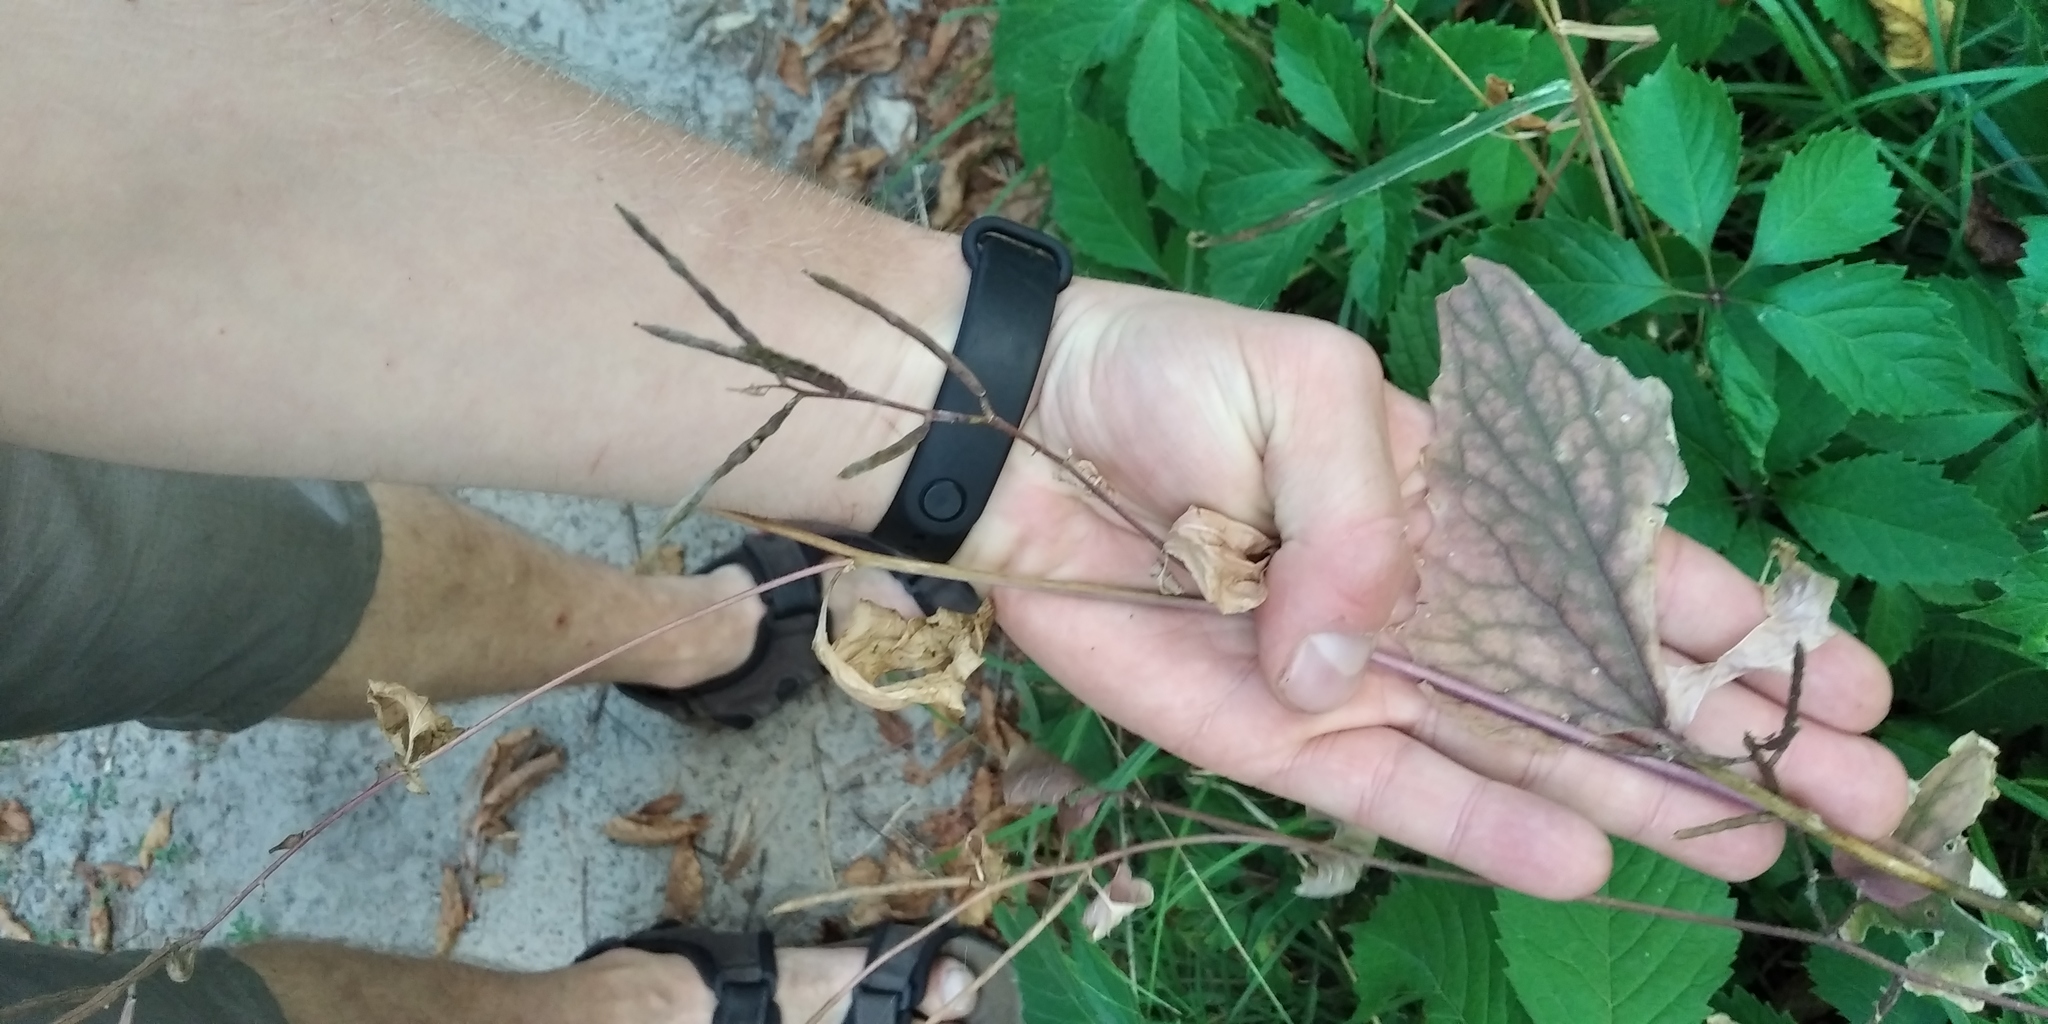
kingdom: Plantae
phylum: Tracheophyta
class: Magnoliopsida
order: Brassicales
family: Brassicaceae
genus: Alliaria
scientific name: Alliaria petiolata
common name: Garlic mustard
